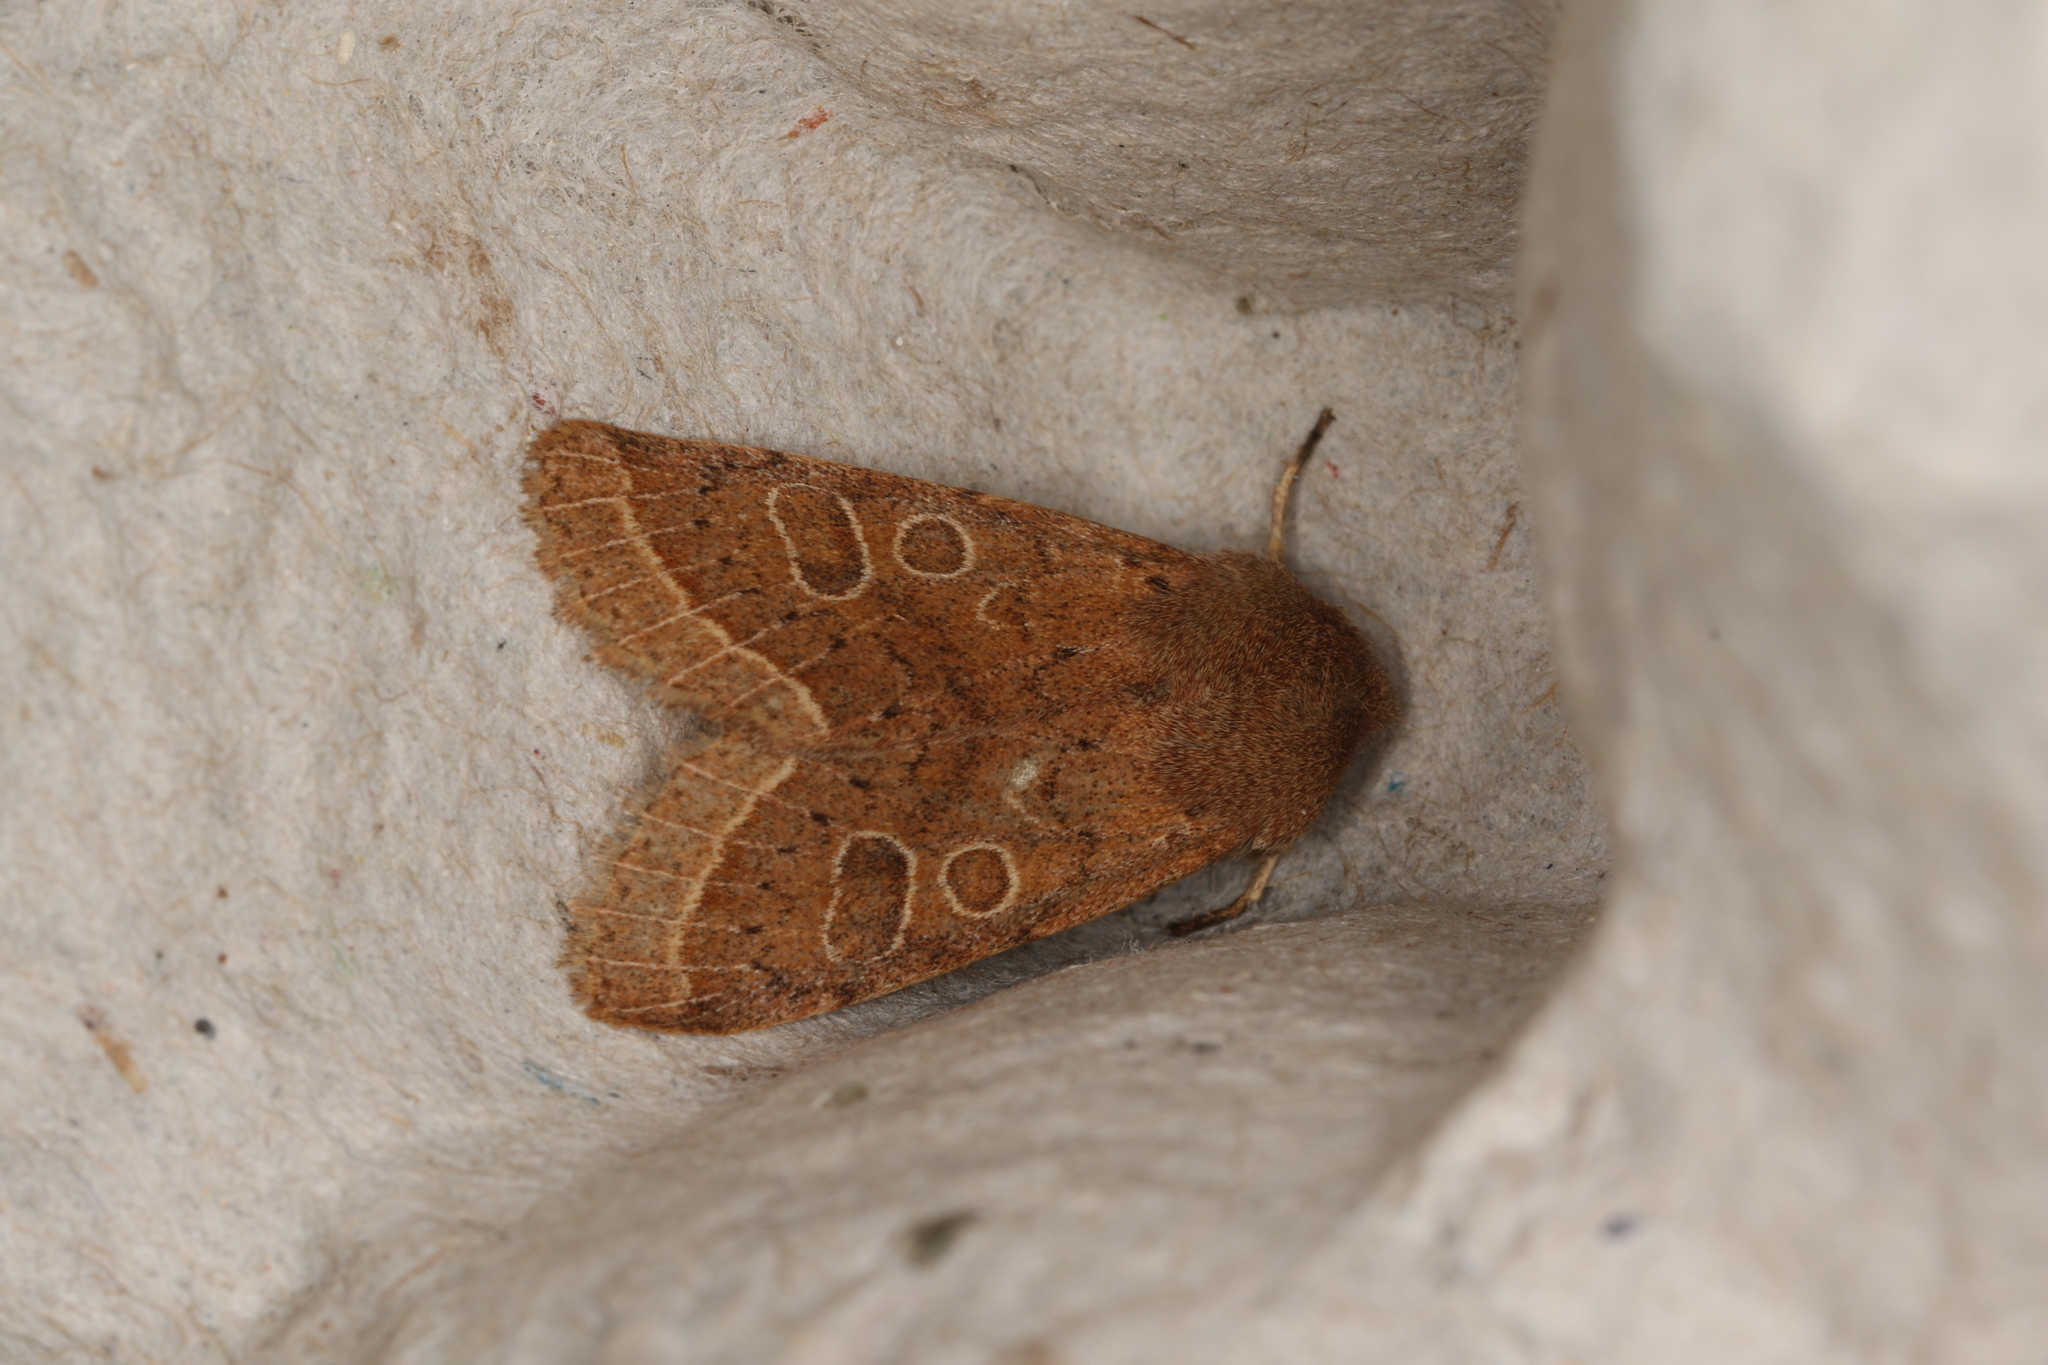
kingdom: Animalia
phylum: Arthropoda
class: Insecta
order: Lepidoptera
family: Noctuidae
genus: Orthosia
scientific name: Orthosia cerasi
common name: Common quaker
